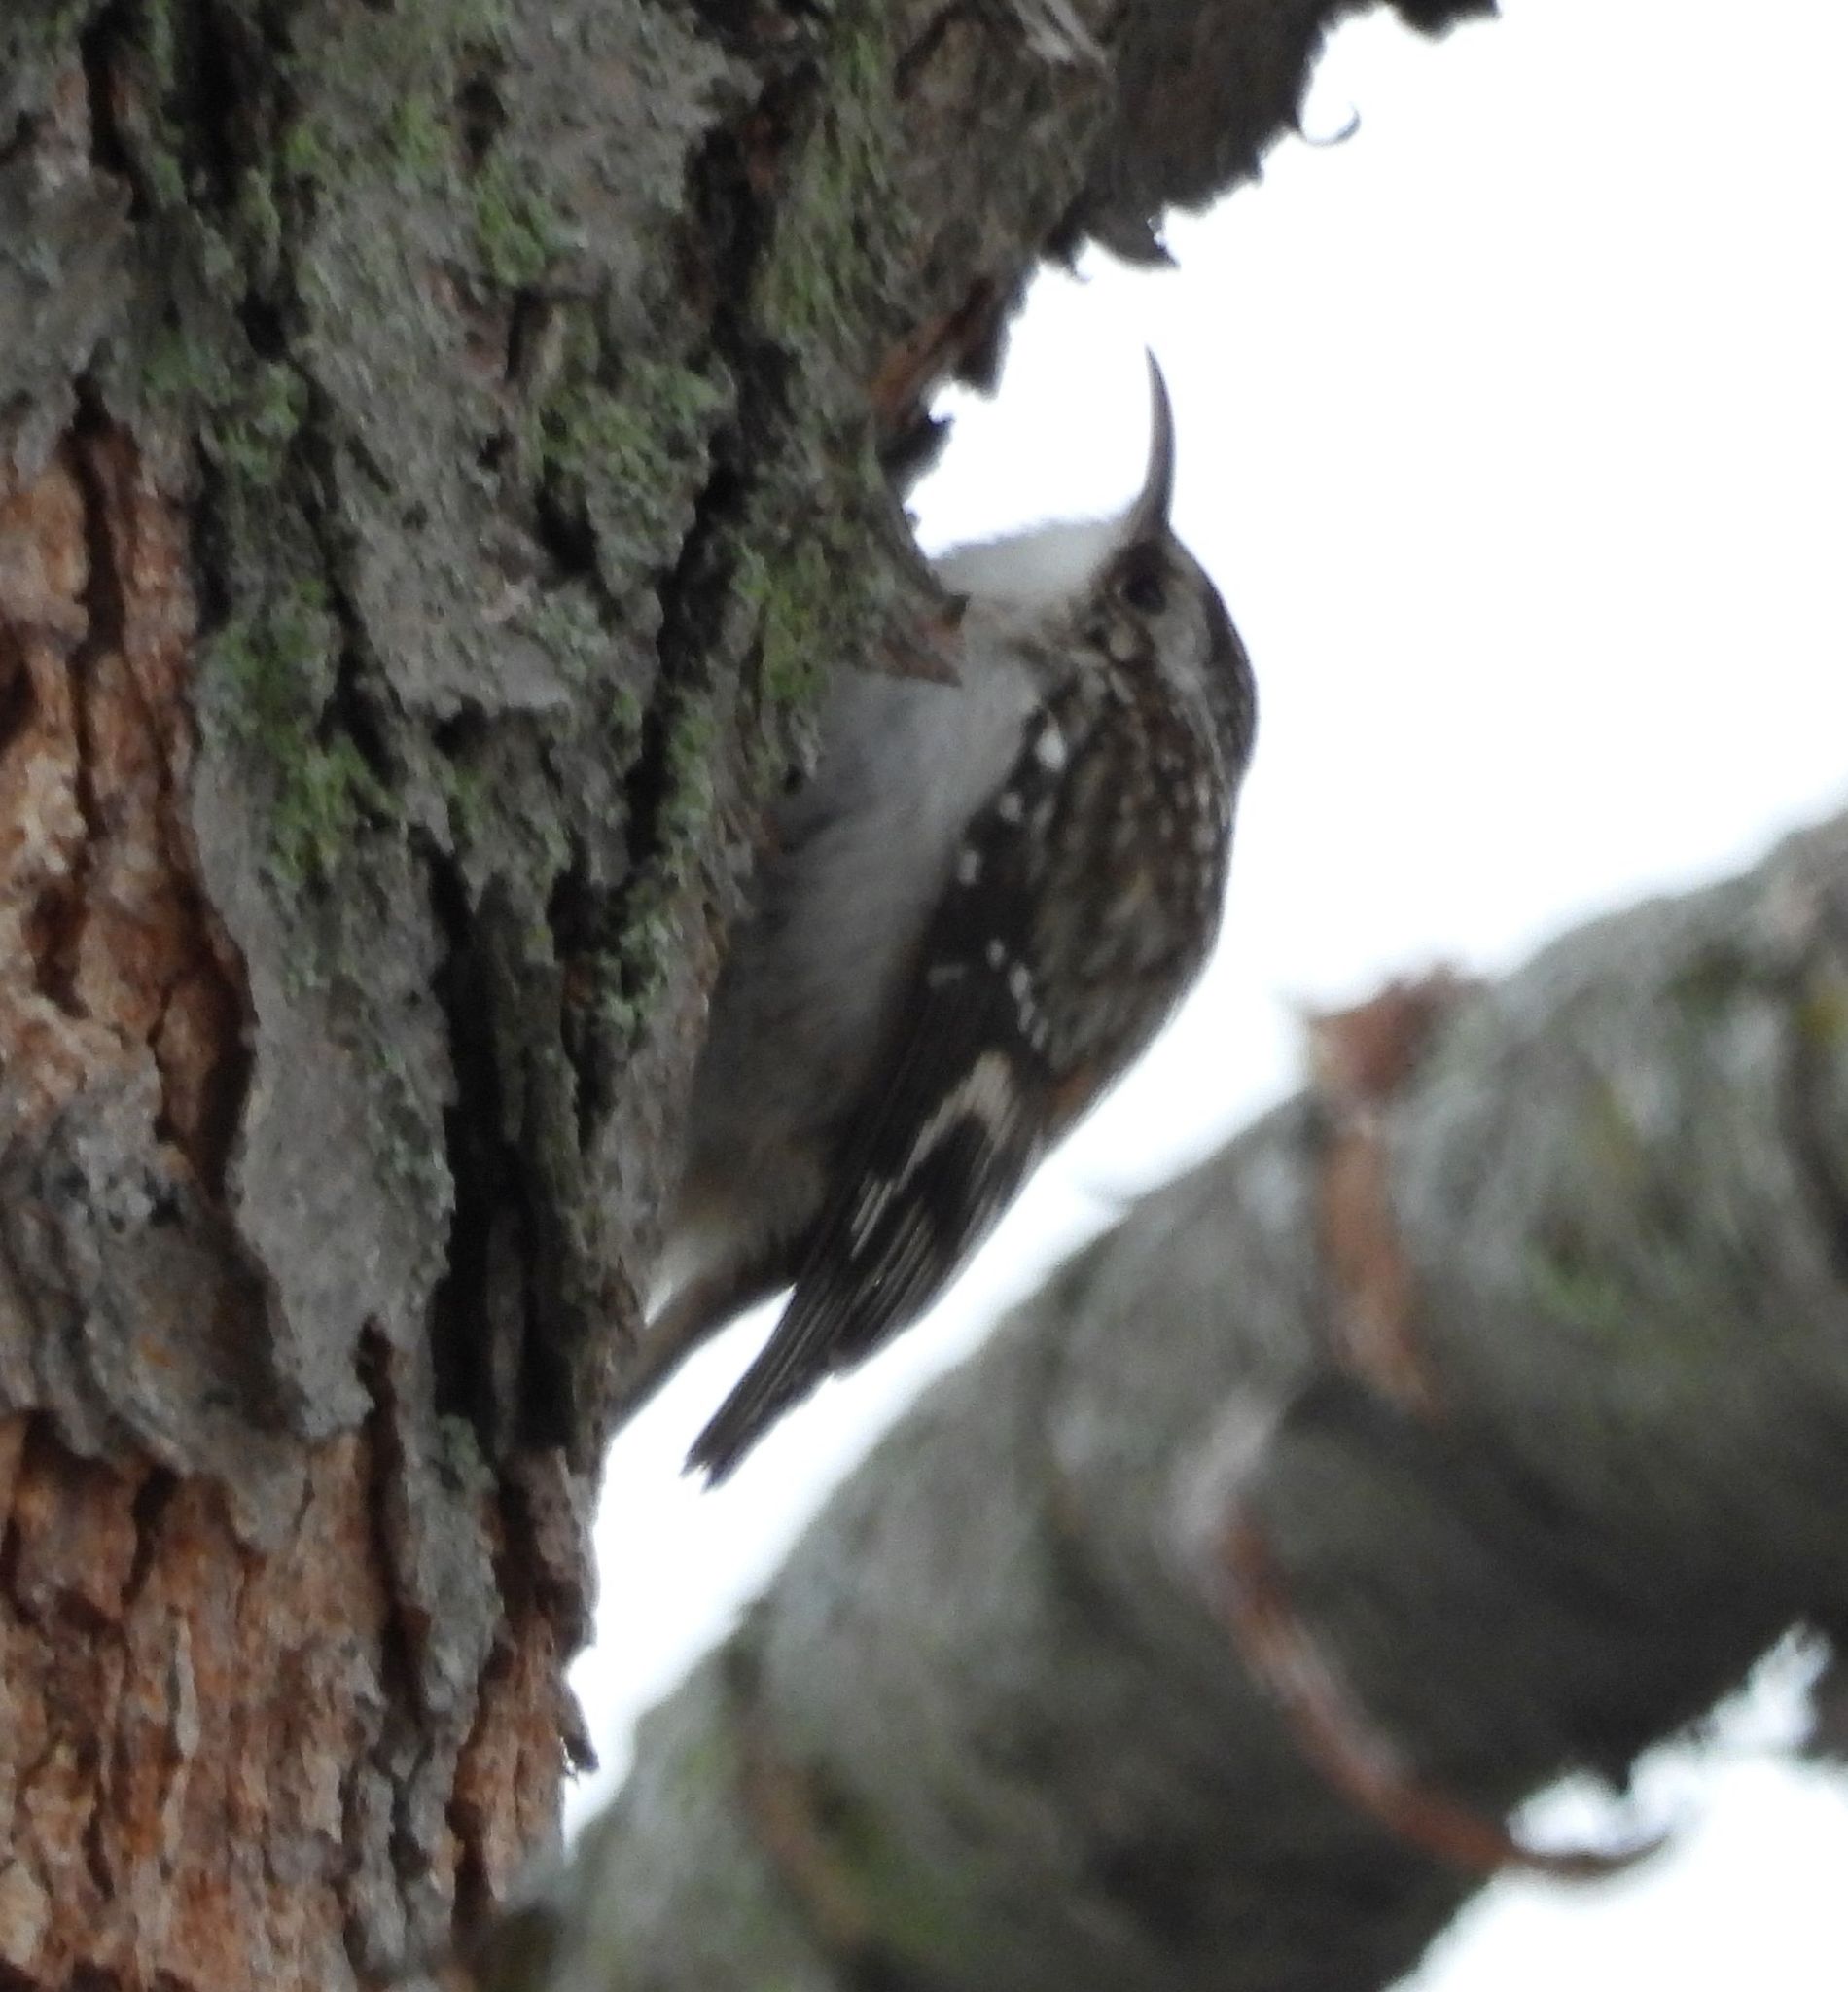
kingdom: Animalia
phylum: Chordata
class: Aves
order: Passeriformes
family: Certhiidae
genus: Certhia
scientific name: Certhia americana
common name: Brown creeper
